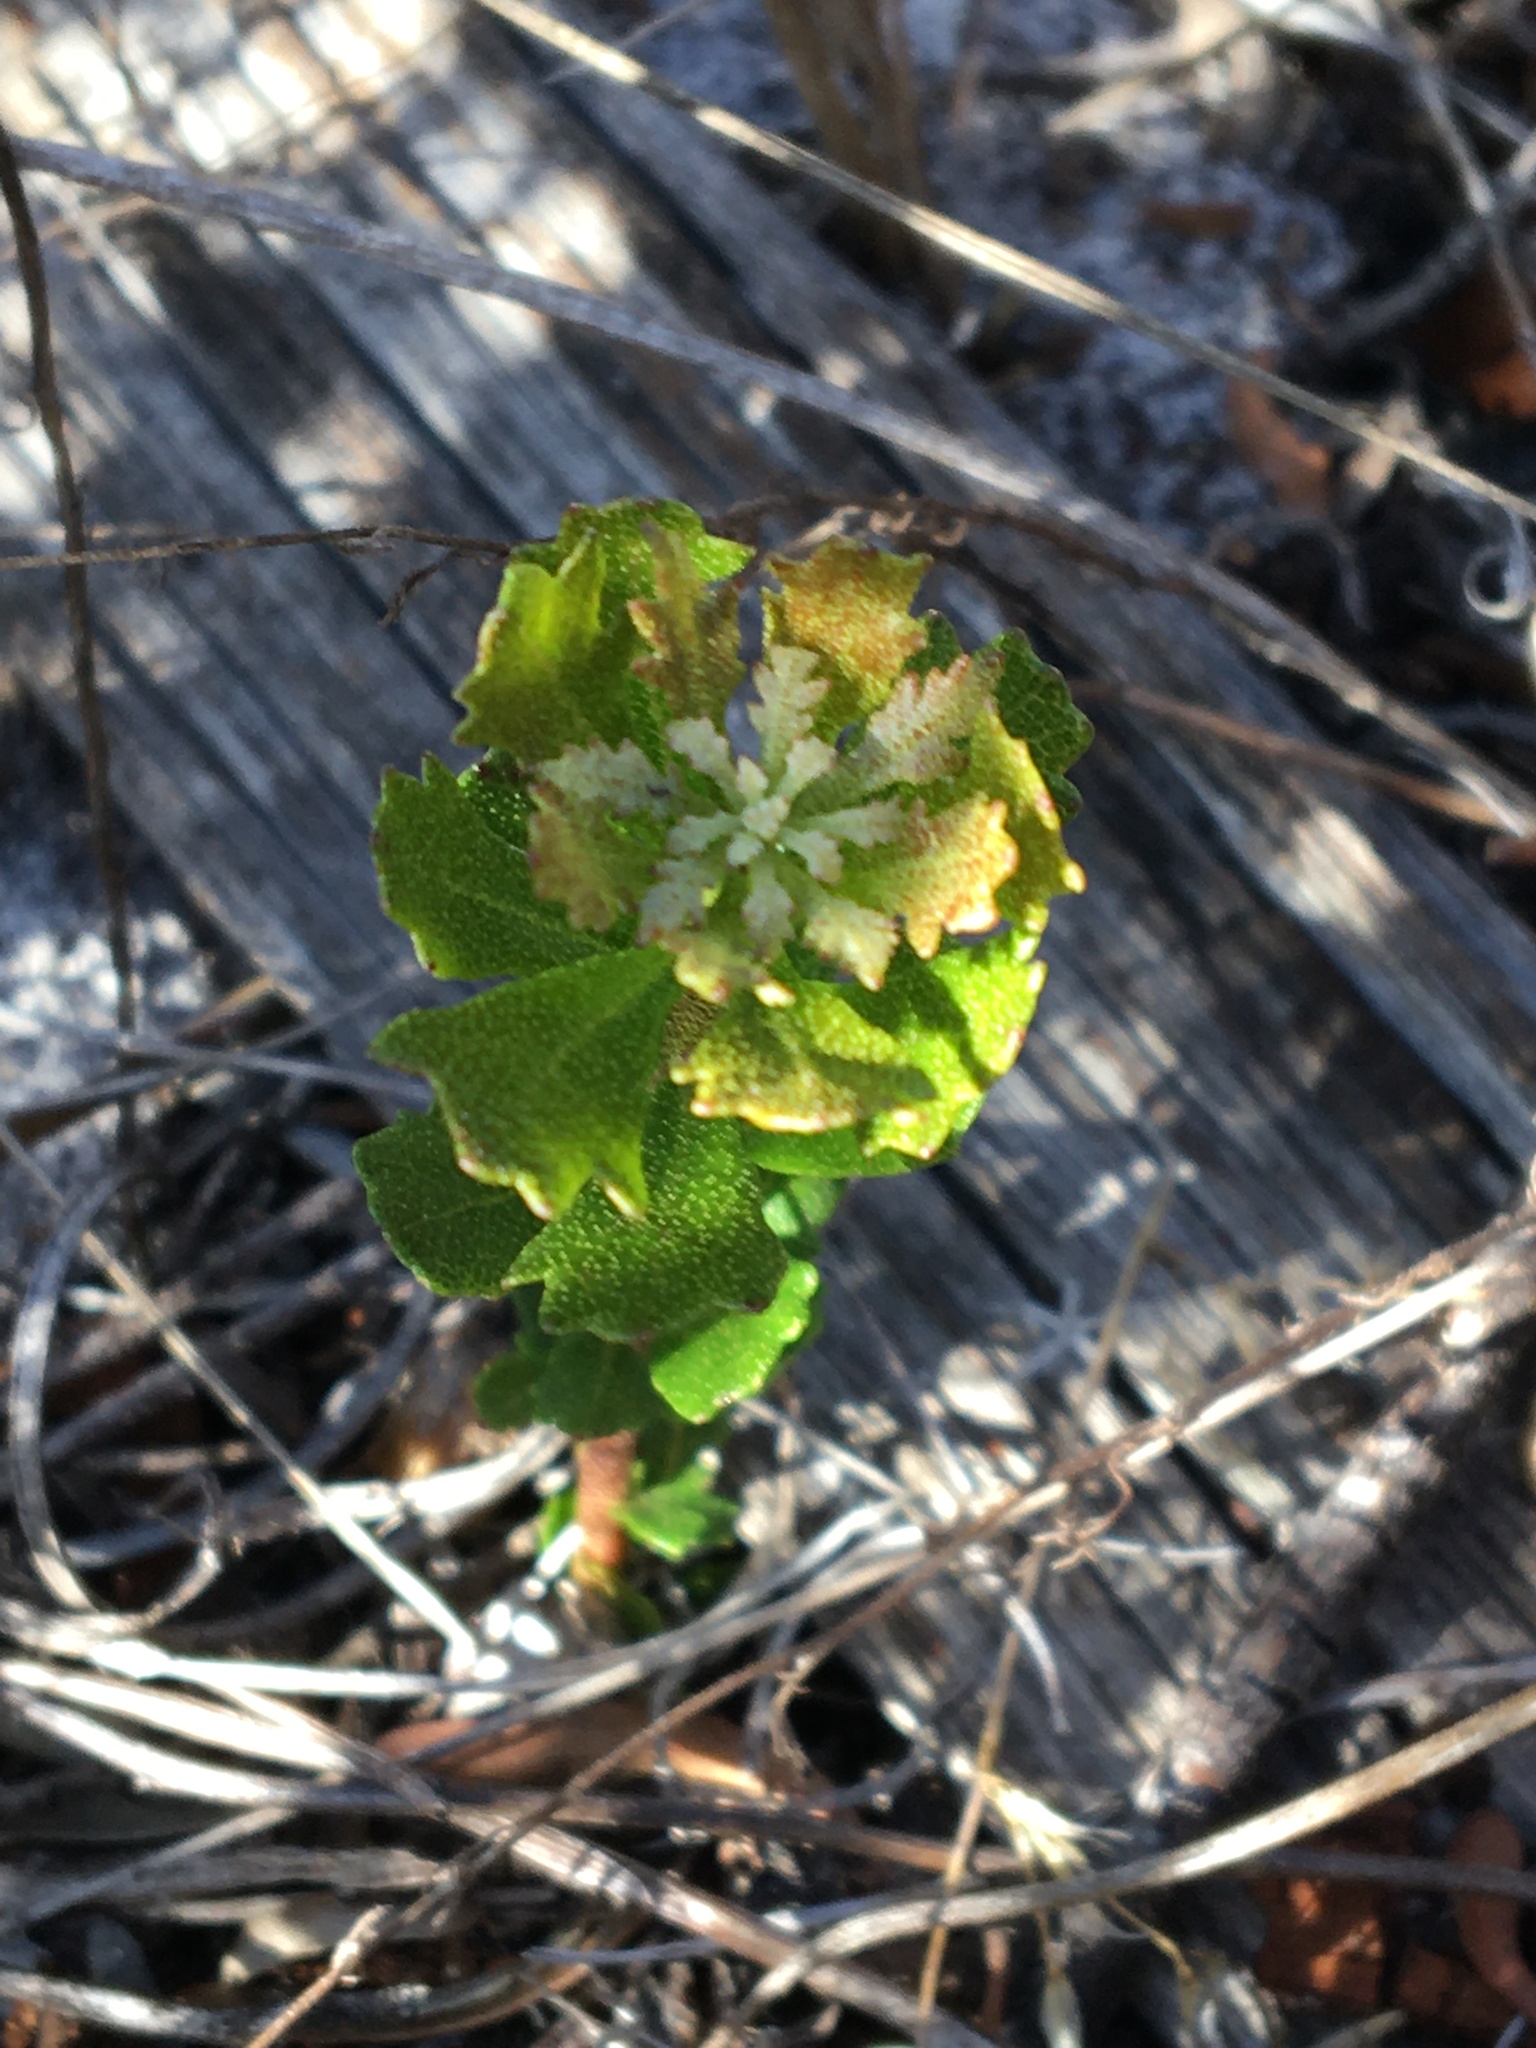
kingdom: Plantae
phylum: Tracheophyta
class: Magnoliopsida
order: Fagales
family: Myricaceae
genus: Morella
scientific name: Morella quercifolia
